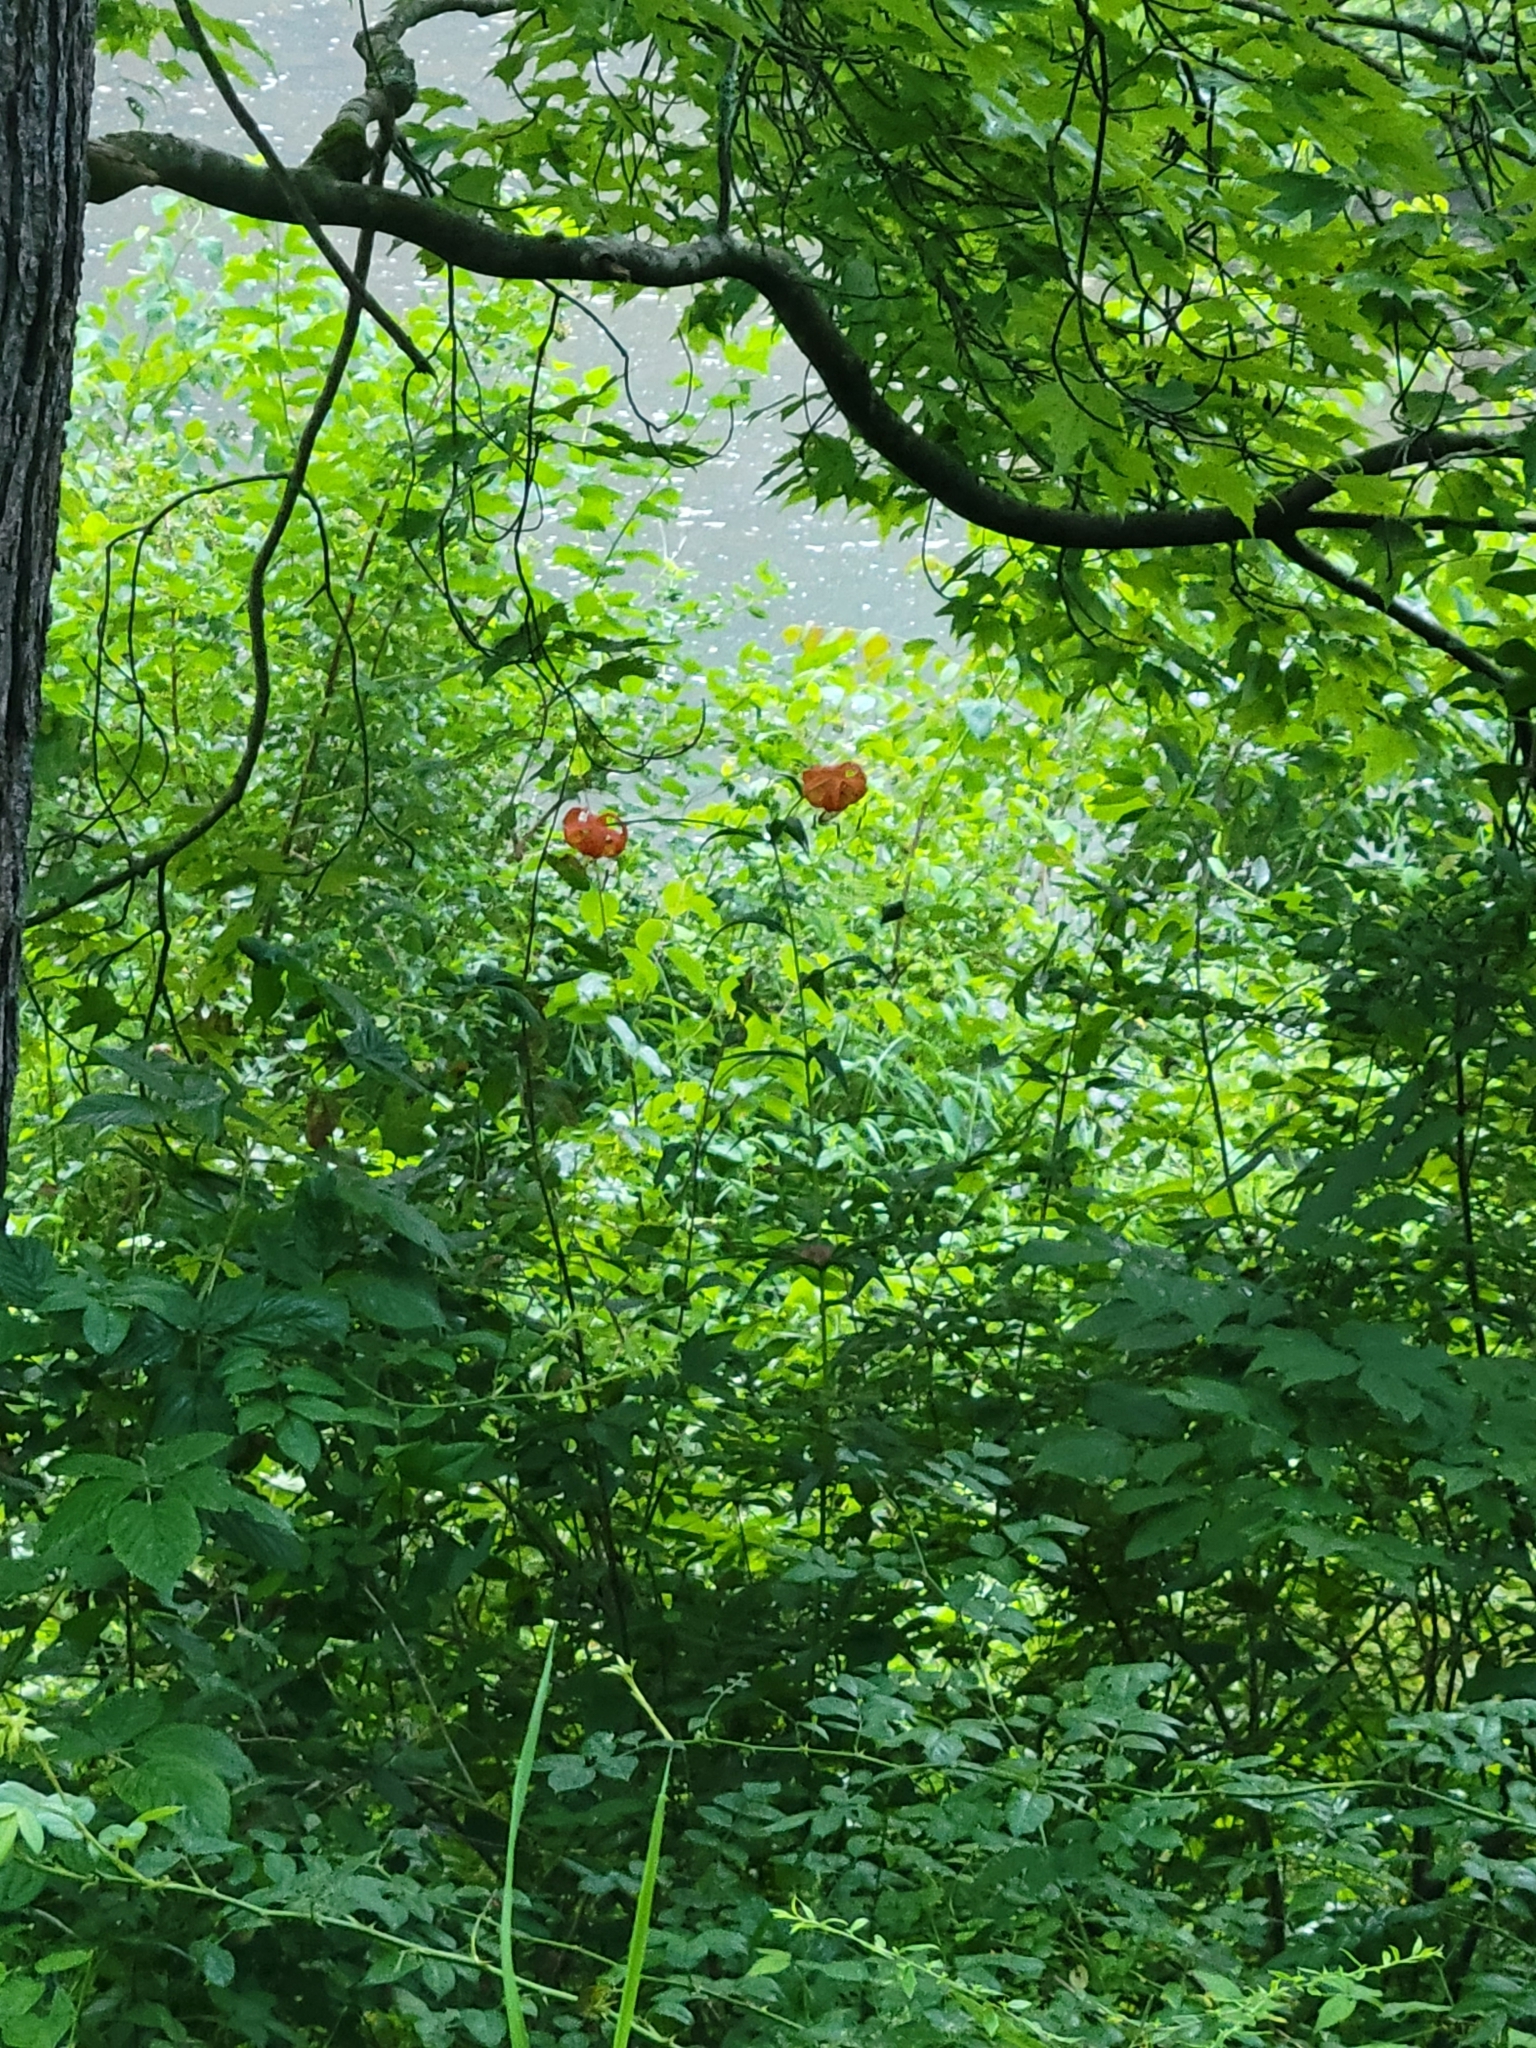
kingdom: Plantae
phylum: Tracheophyta
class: Liliopsida
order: Liliales
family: Liliaceae
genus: Lilium
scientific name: Lilium superbum
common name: American turk's-cap lily
